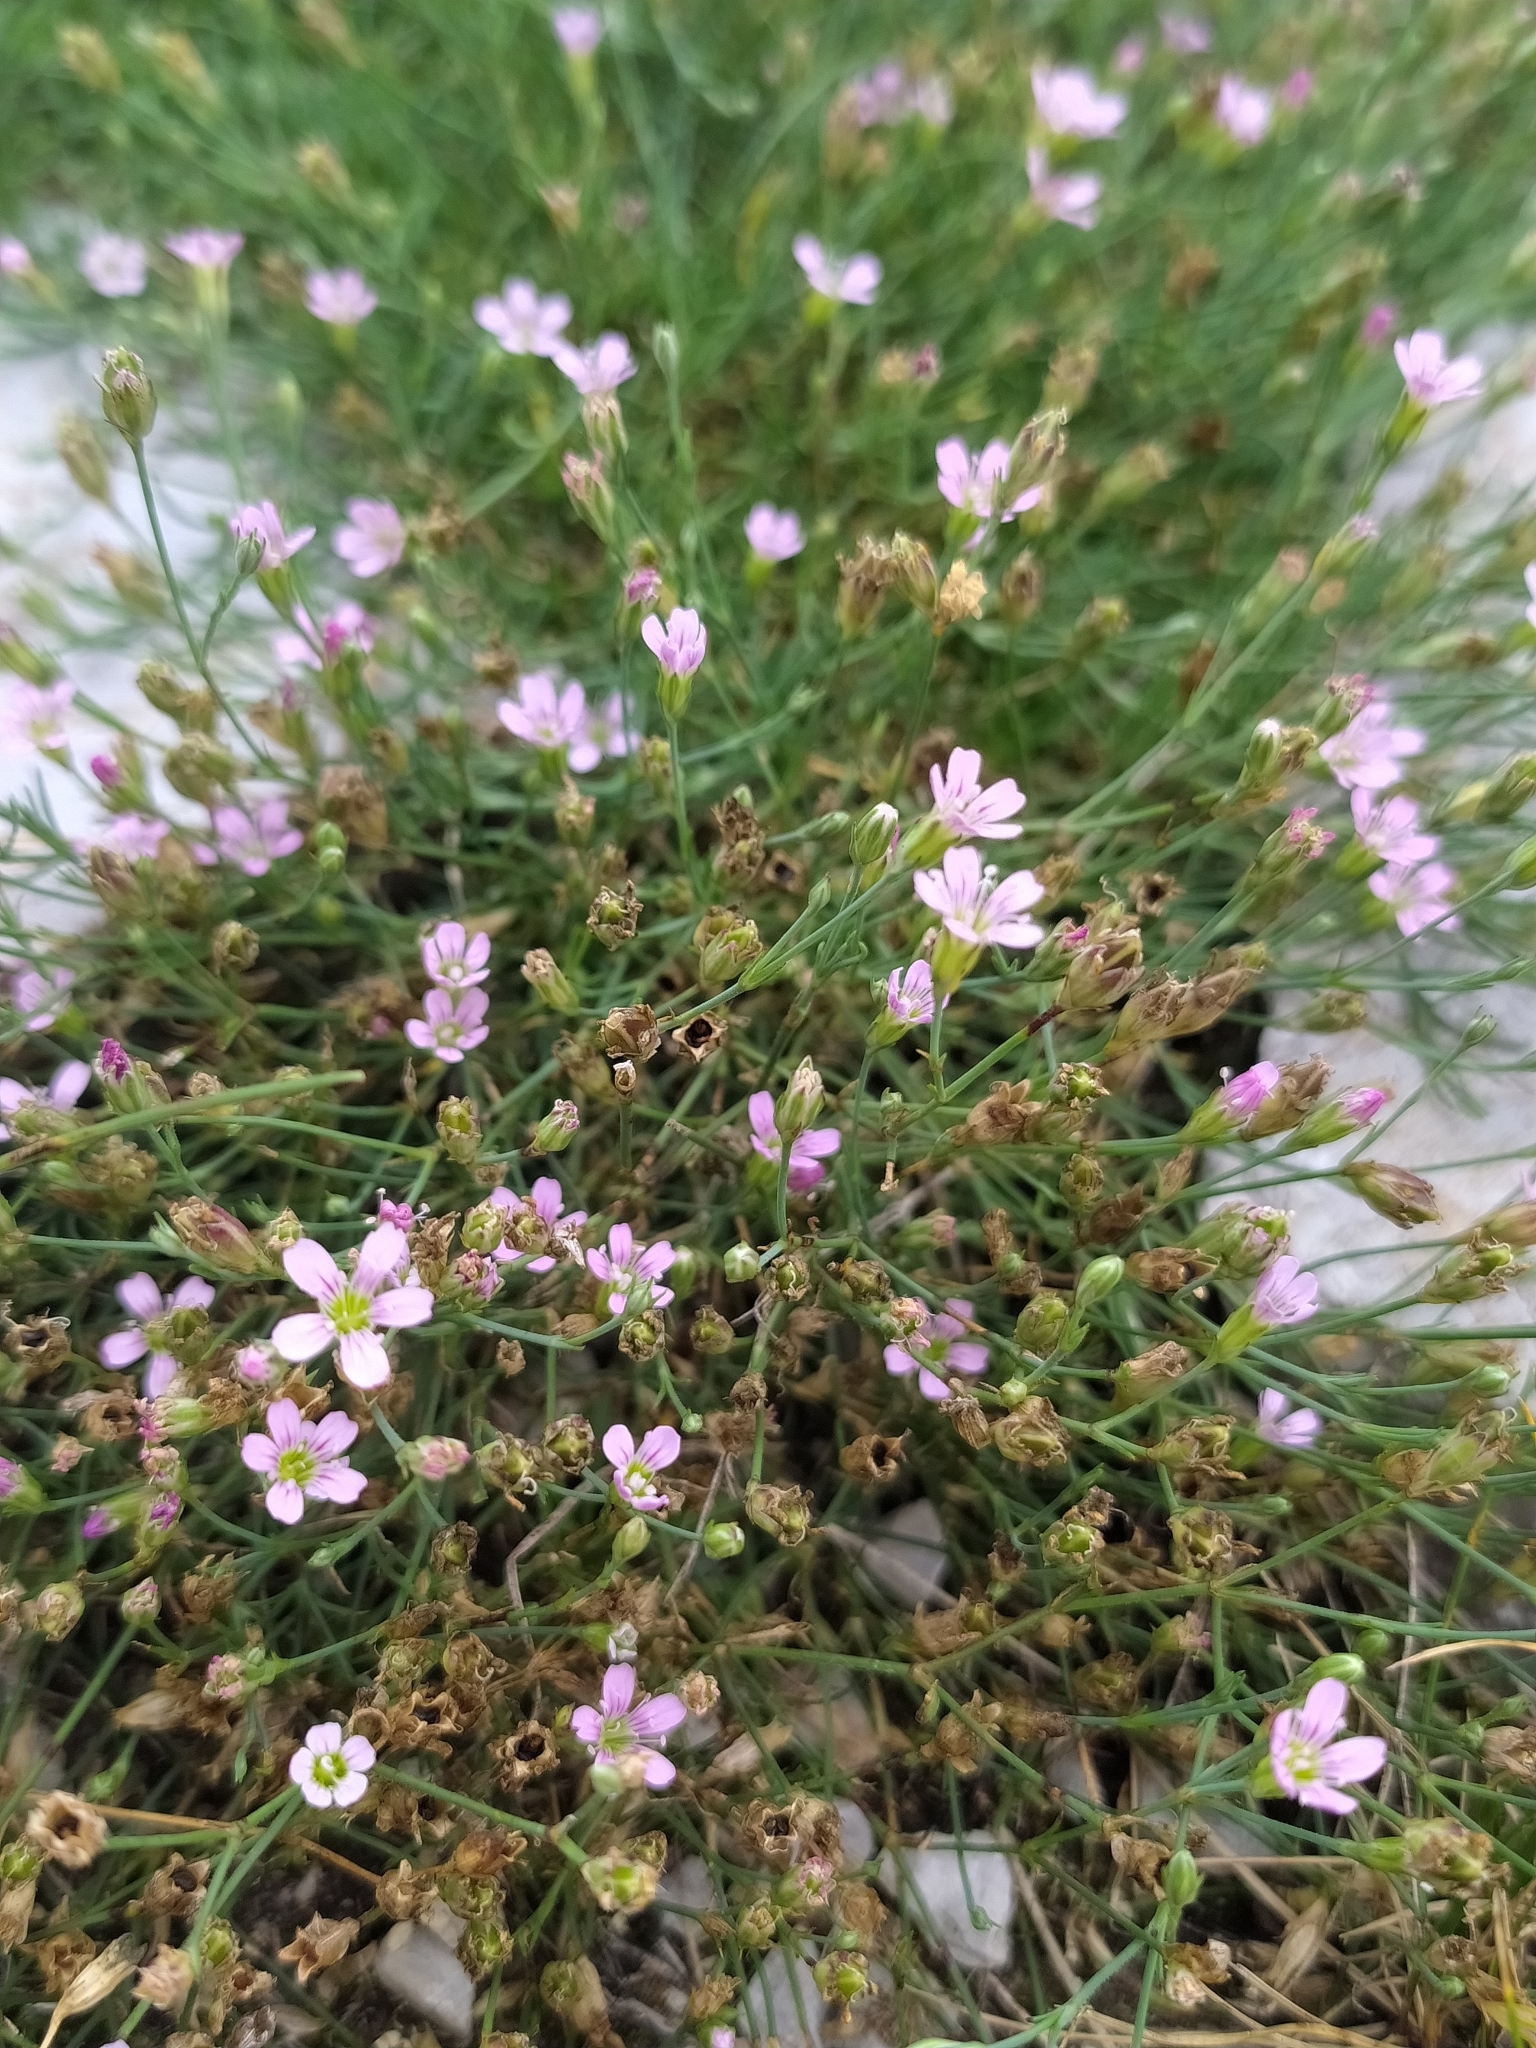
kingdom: Plantae
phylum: Tracheophyta
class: Magnoliopsida
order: Caryophyllales
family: Caryophyllaceae
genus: Petrorhagia
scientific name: Petrorhagia saxifraga
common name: Tunicflower
